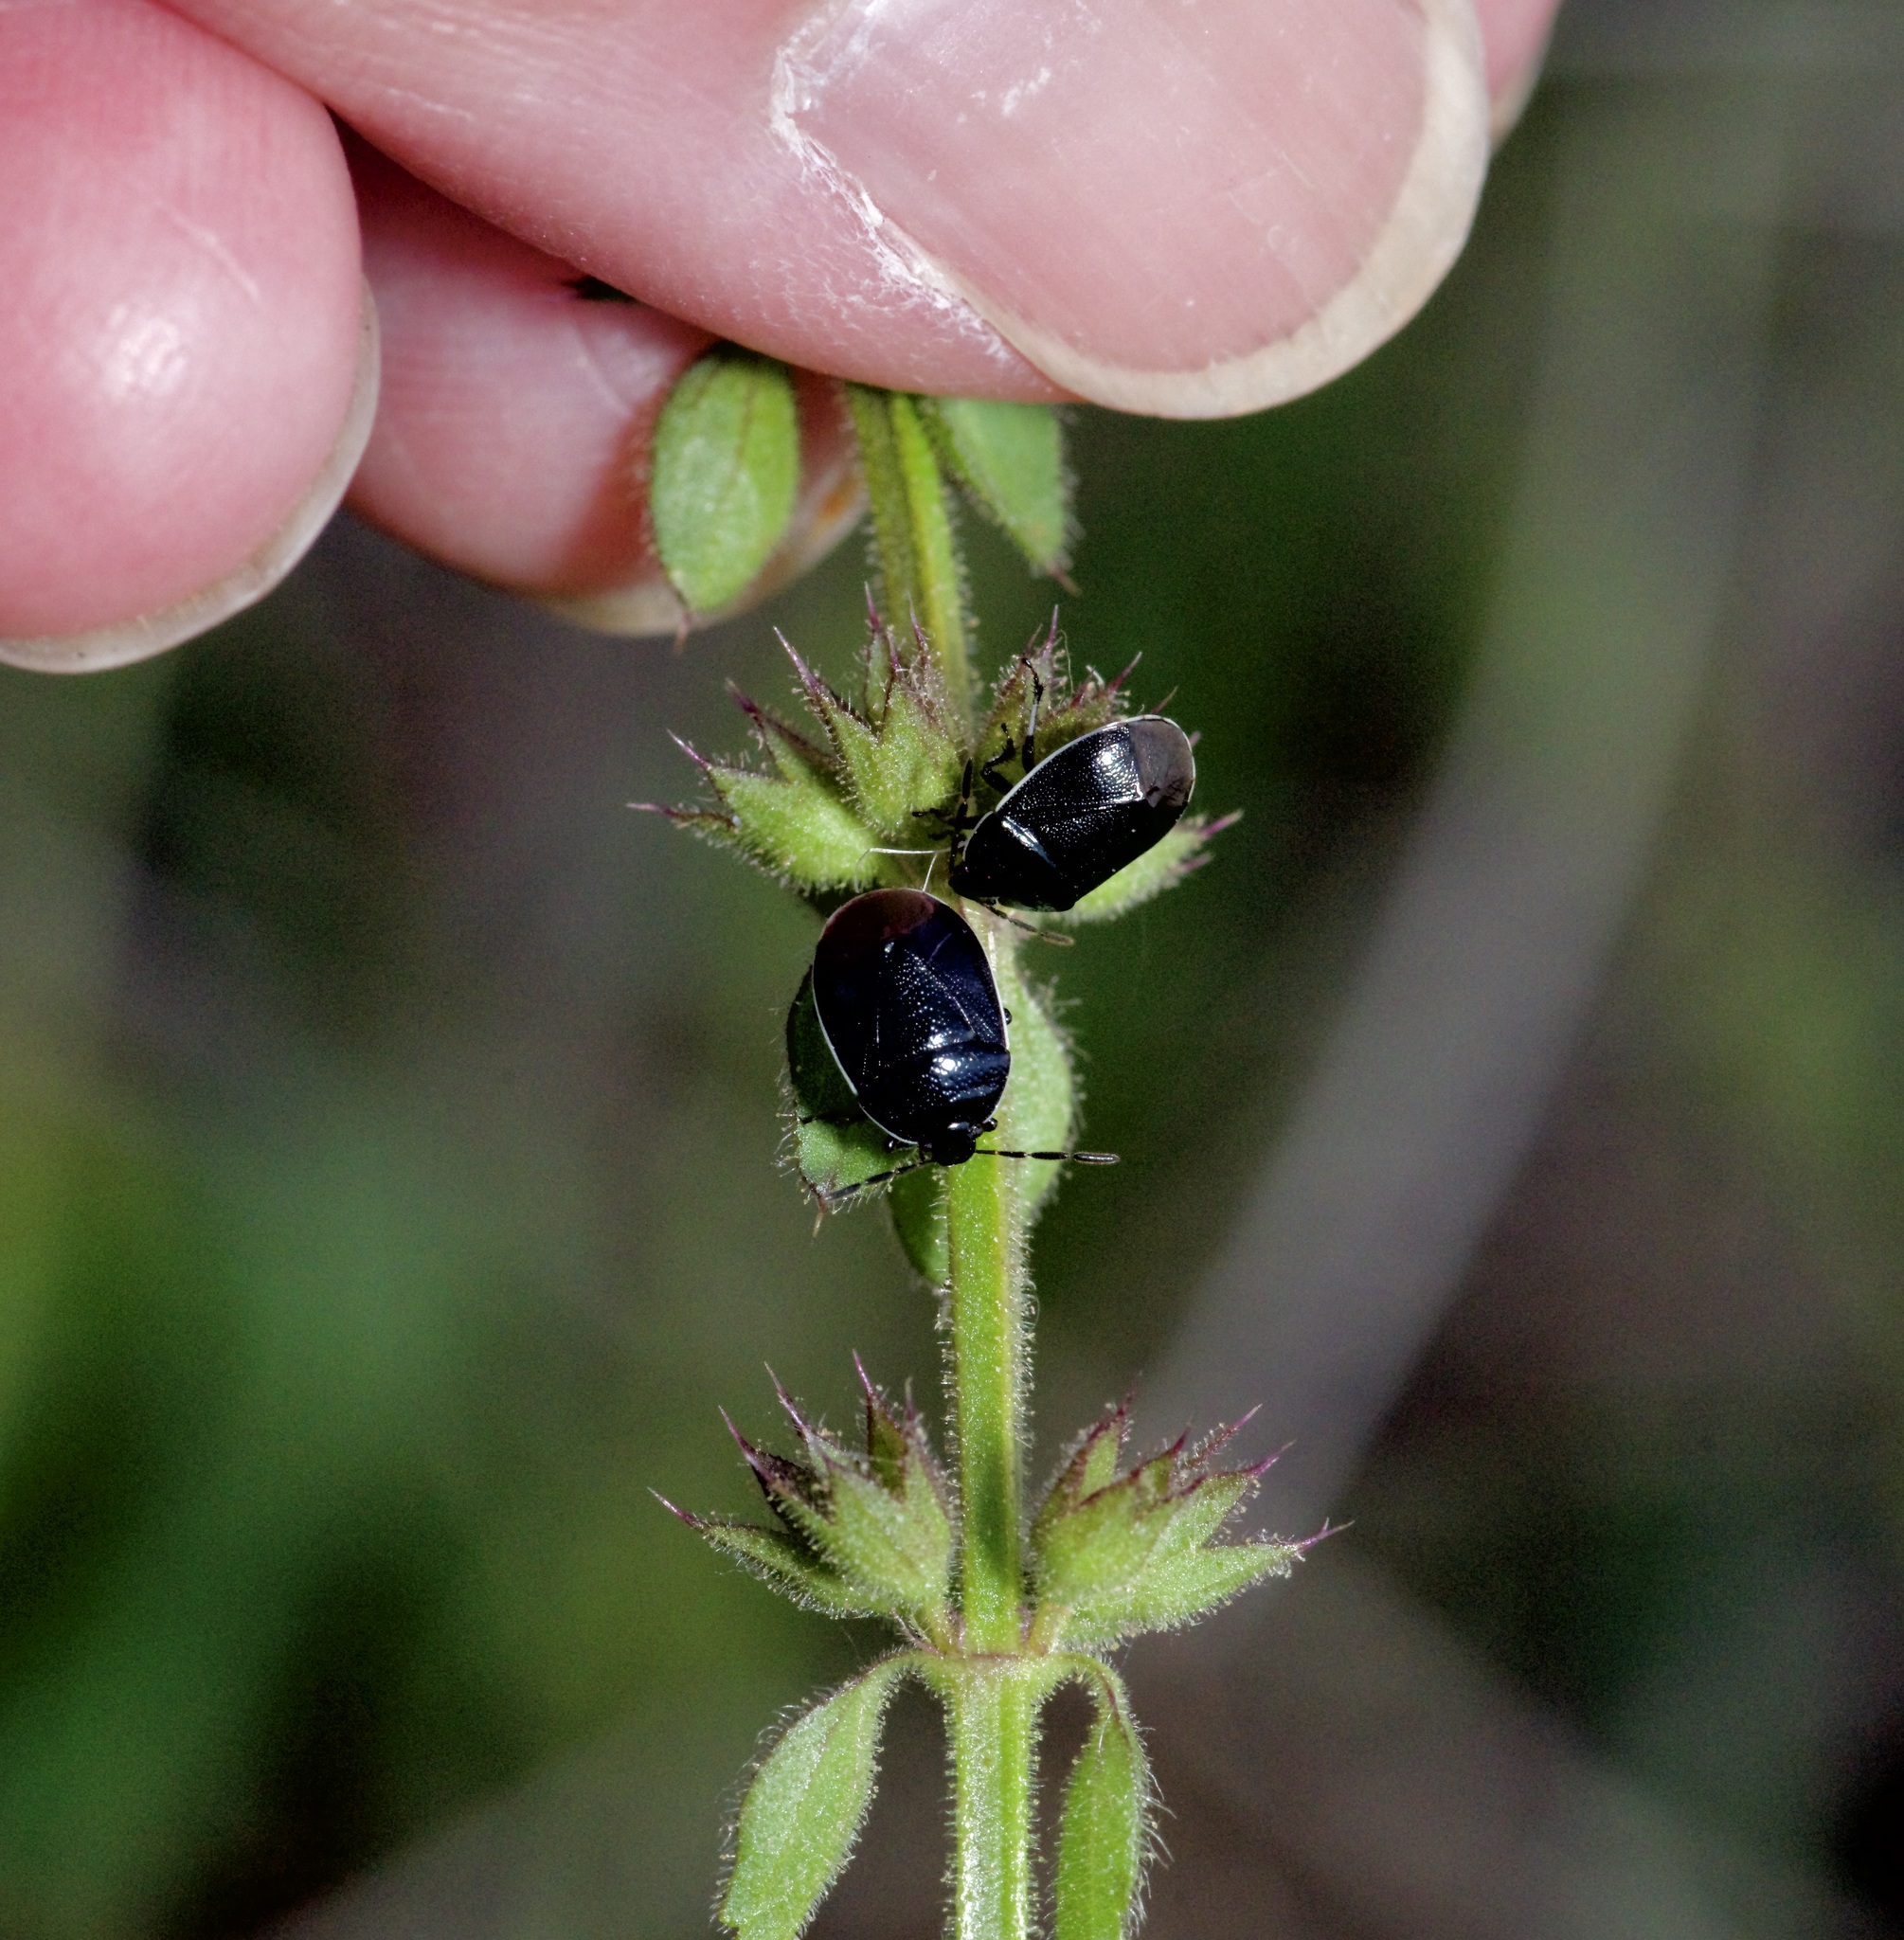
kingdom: Animalia
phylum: Arthropoda
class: Insecta
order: Hemiptera
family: Cydnidae
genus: Sehirus
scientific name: Sehirus cinctus
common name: White-margined burrower bug
